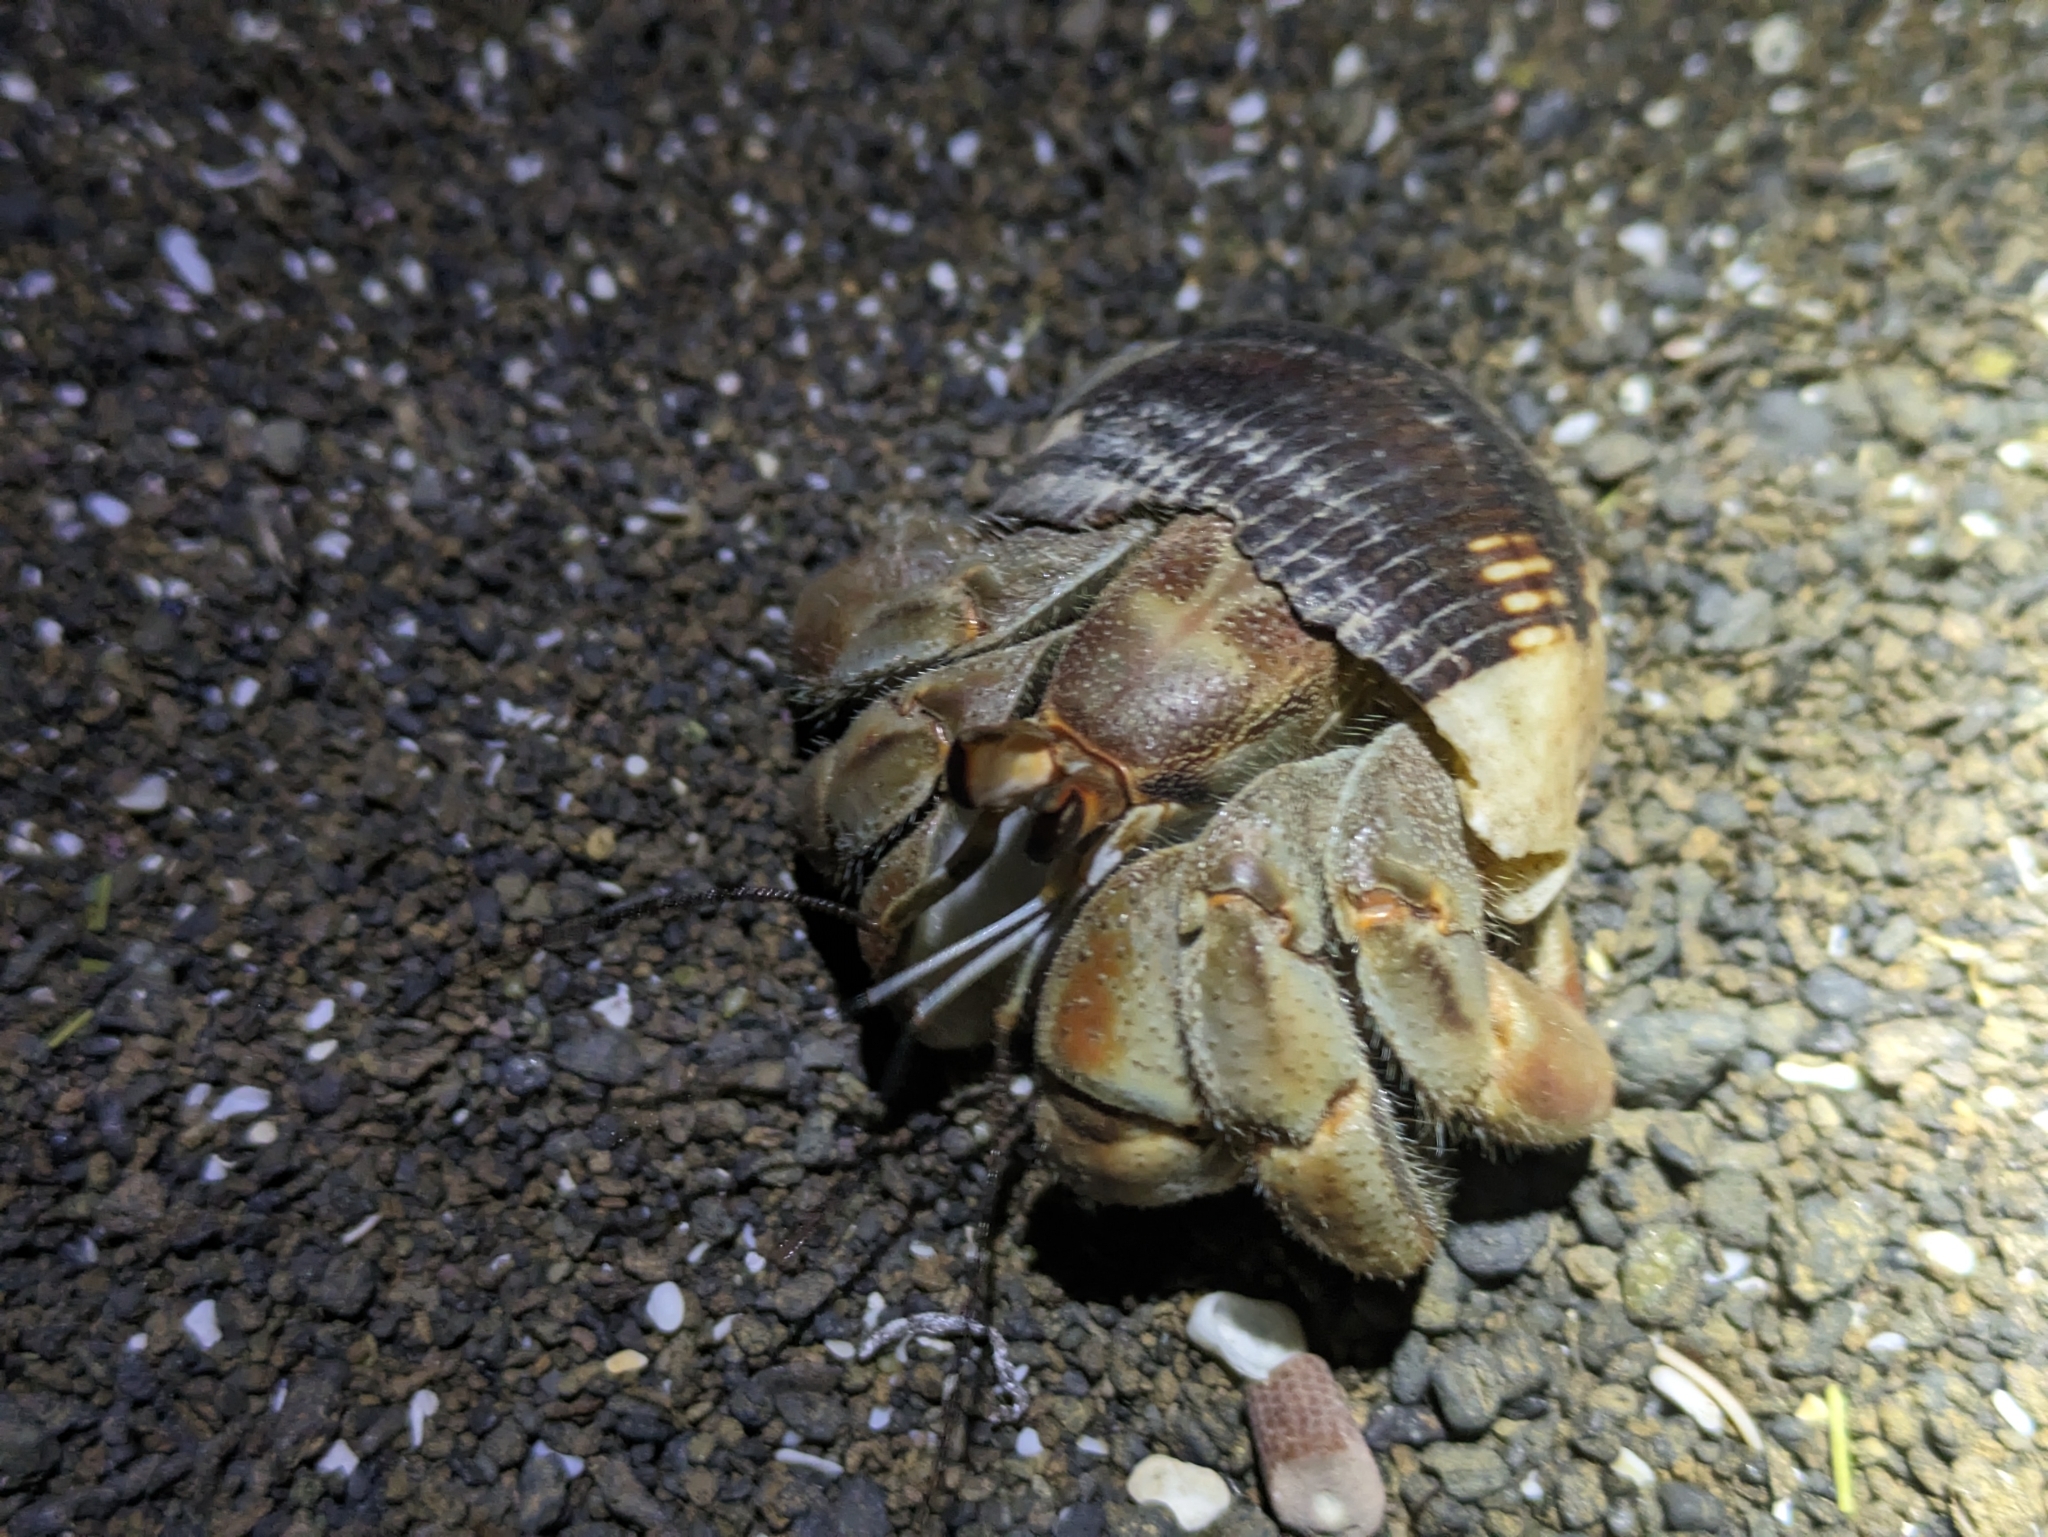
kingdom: Animalia
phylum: Arthropoda
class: Malacostraca
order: Decapoda
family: Coenobitidae
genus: Coenobita
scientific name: Coenobita compressus
